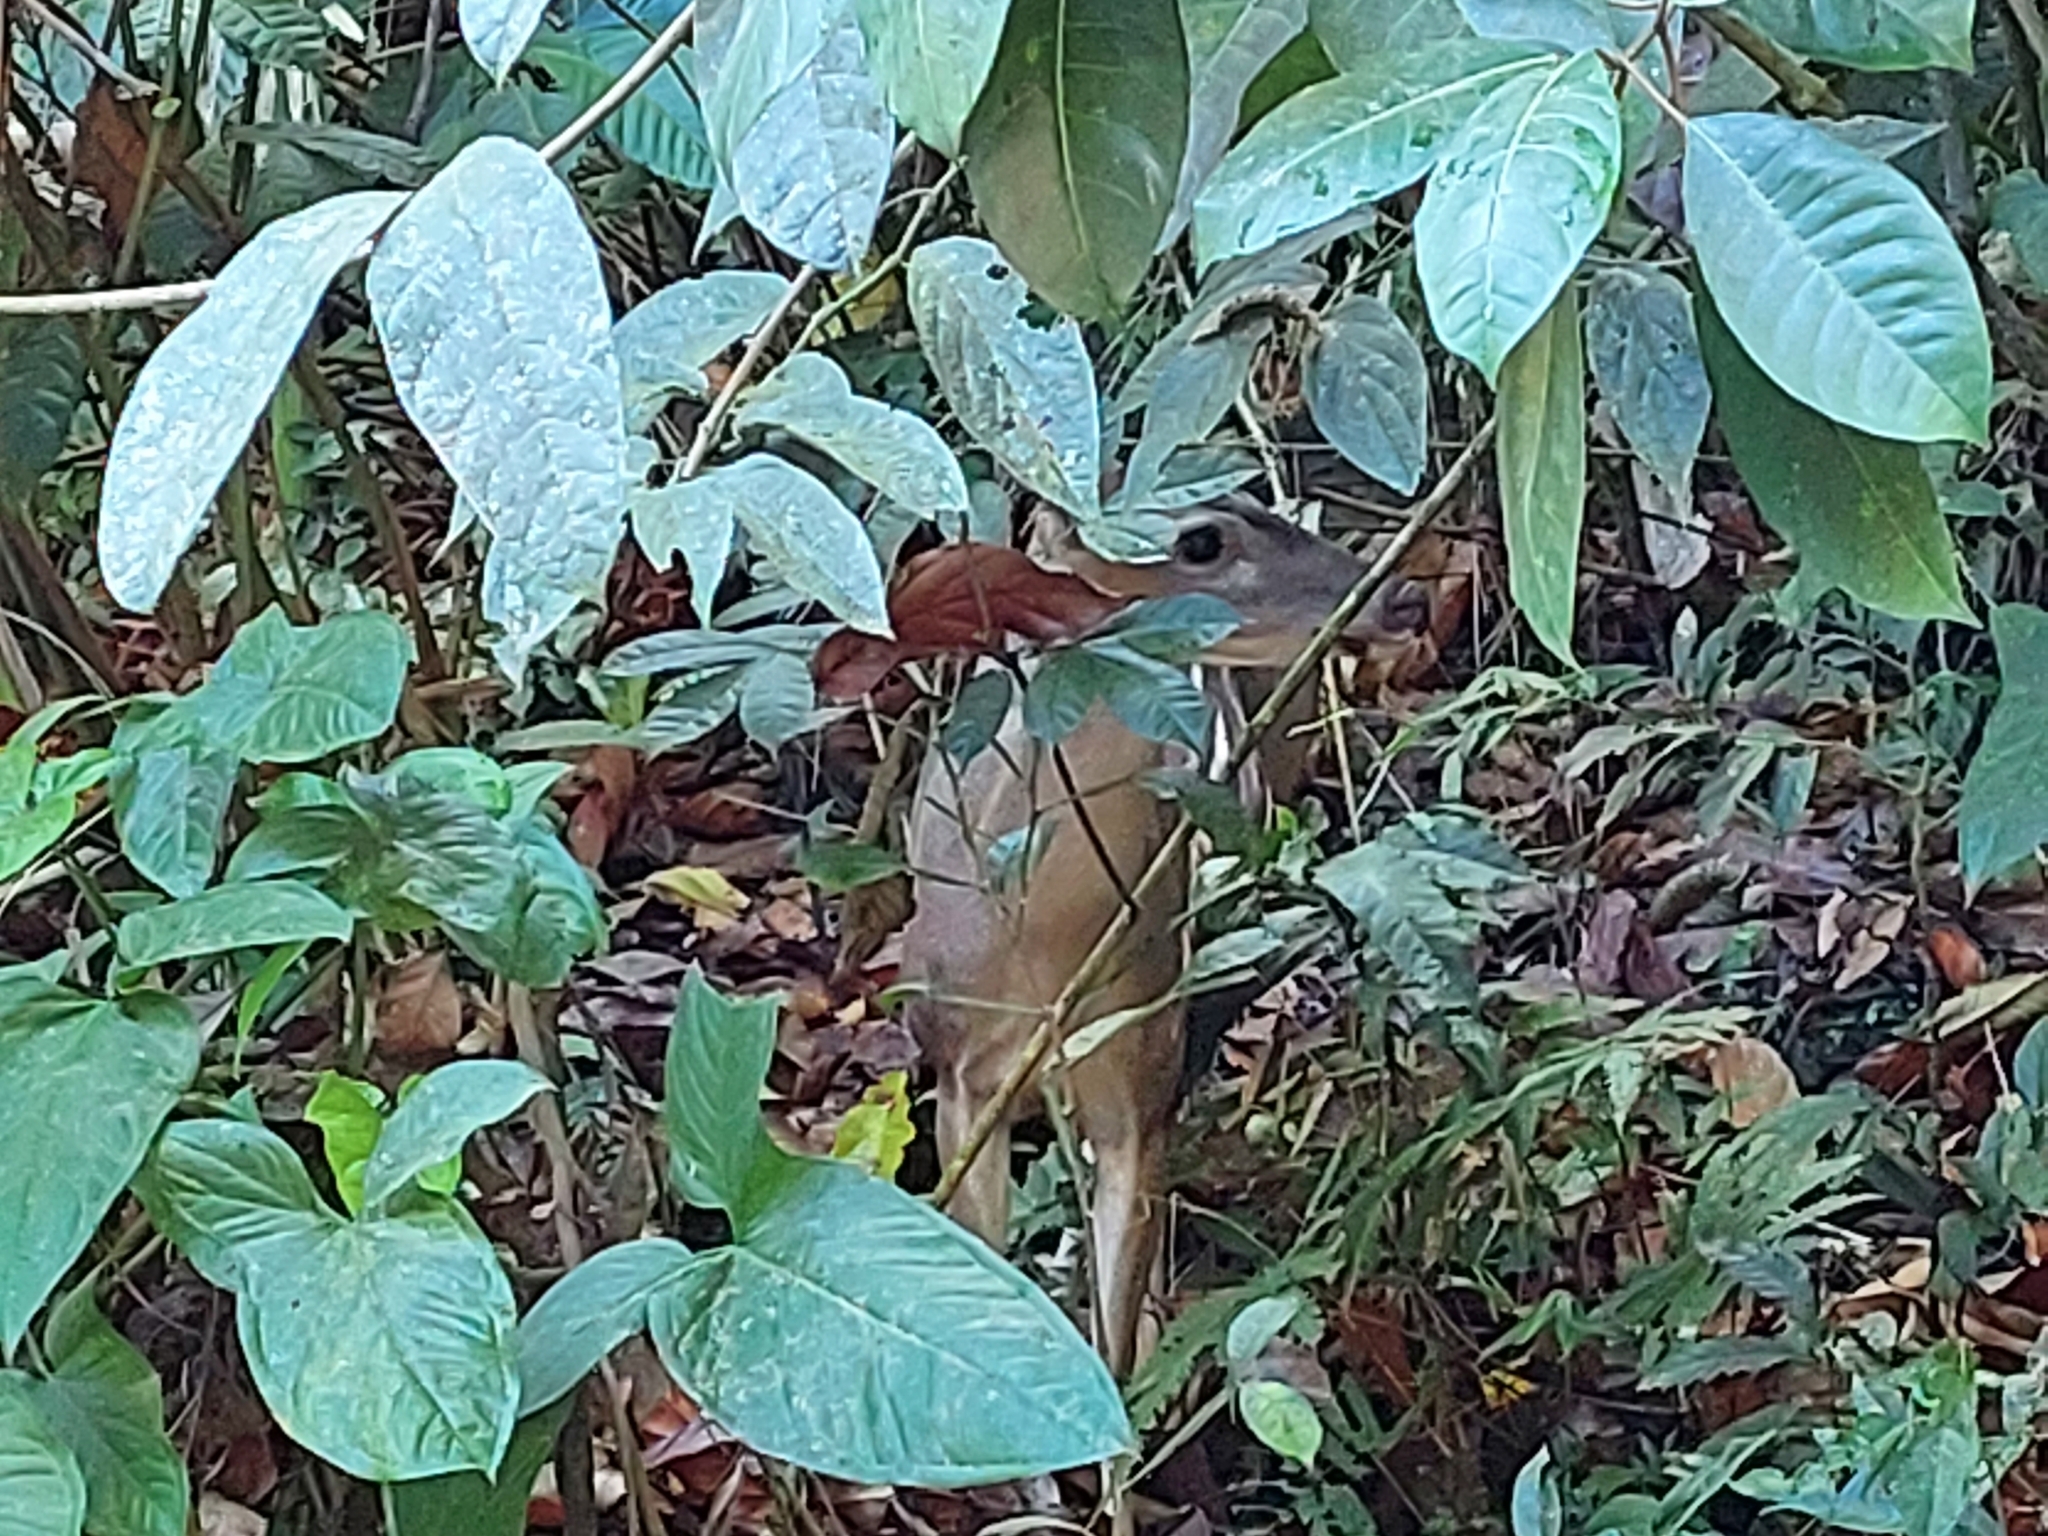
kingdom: Animalia
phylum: Chordata
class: Mammalia
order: Artiodactyla
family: Cervidae
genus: Odocoileus
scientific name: Odocoileus virginianus
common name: White-tailed deer
